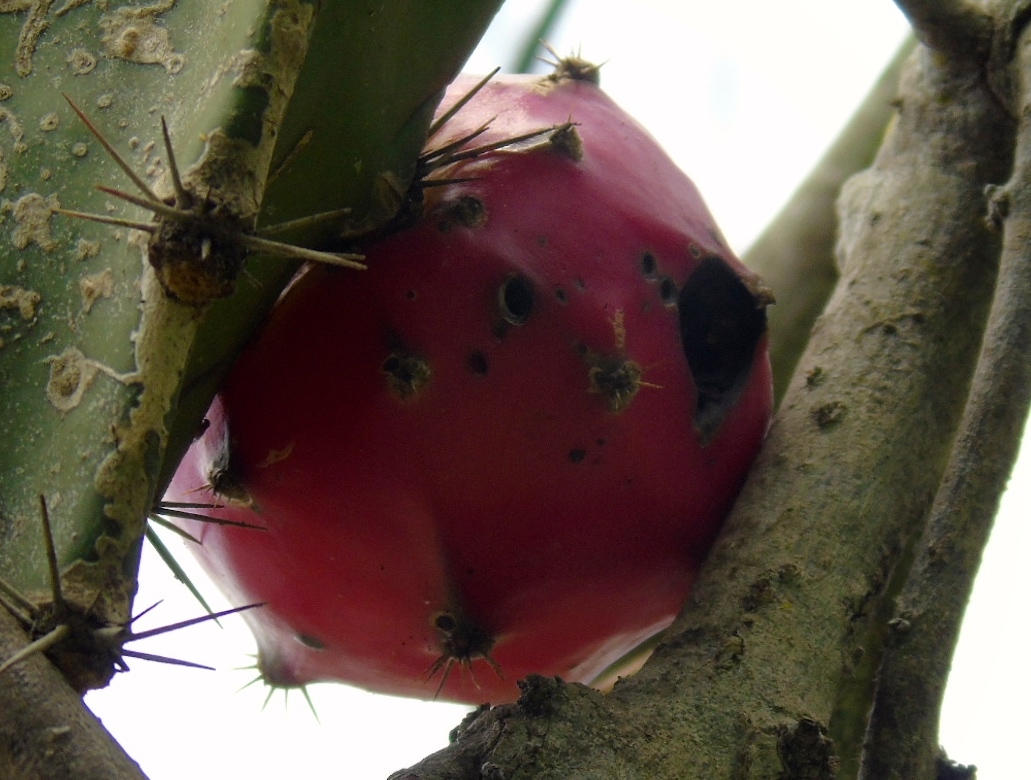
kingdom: Plantae
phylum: Tracheophyta
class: Magnoliopsida
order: Caryophyllales
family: Cactaceae
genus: Acanthocereus
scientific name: Acanthocereus tetragonus
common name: Triangle cactus
